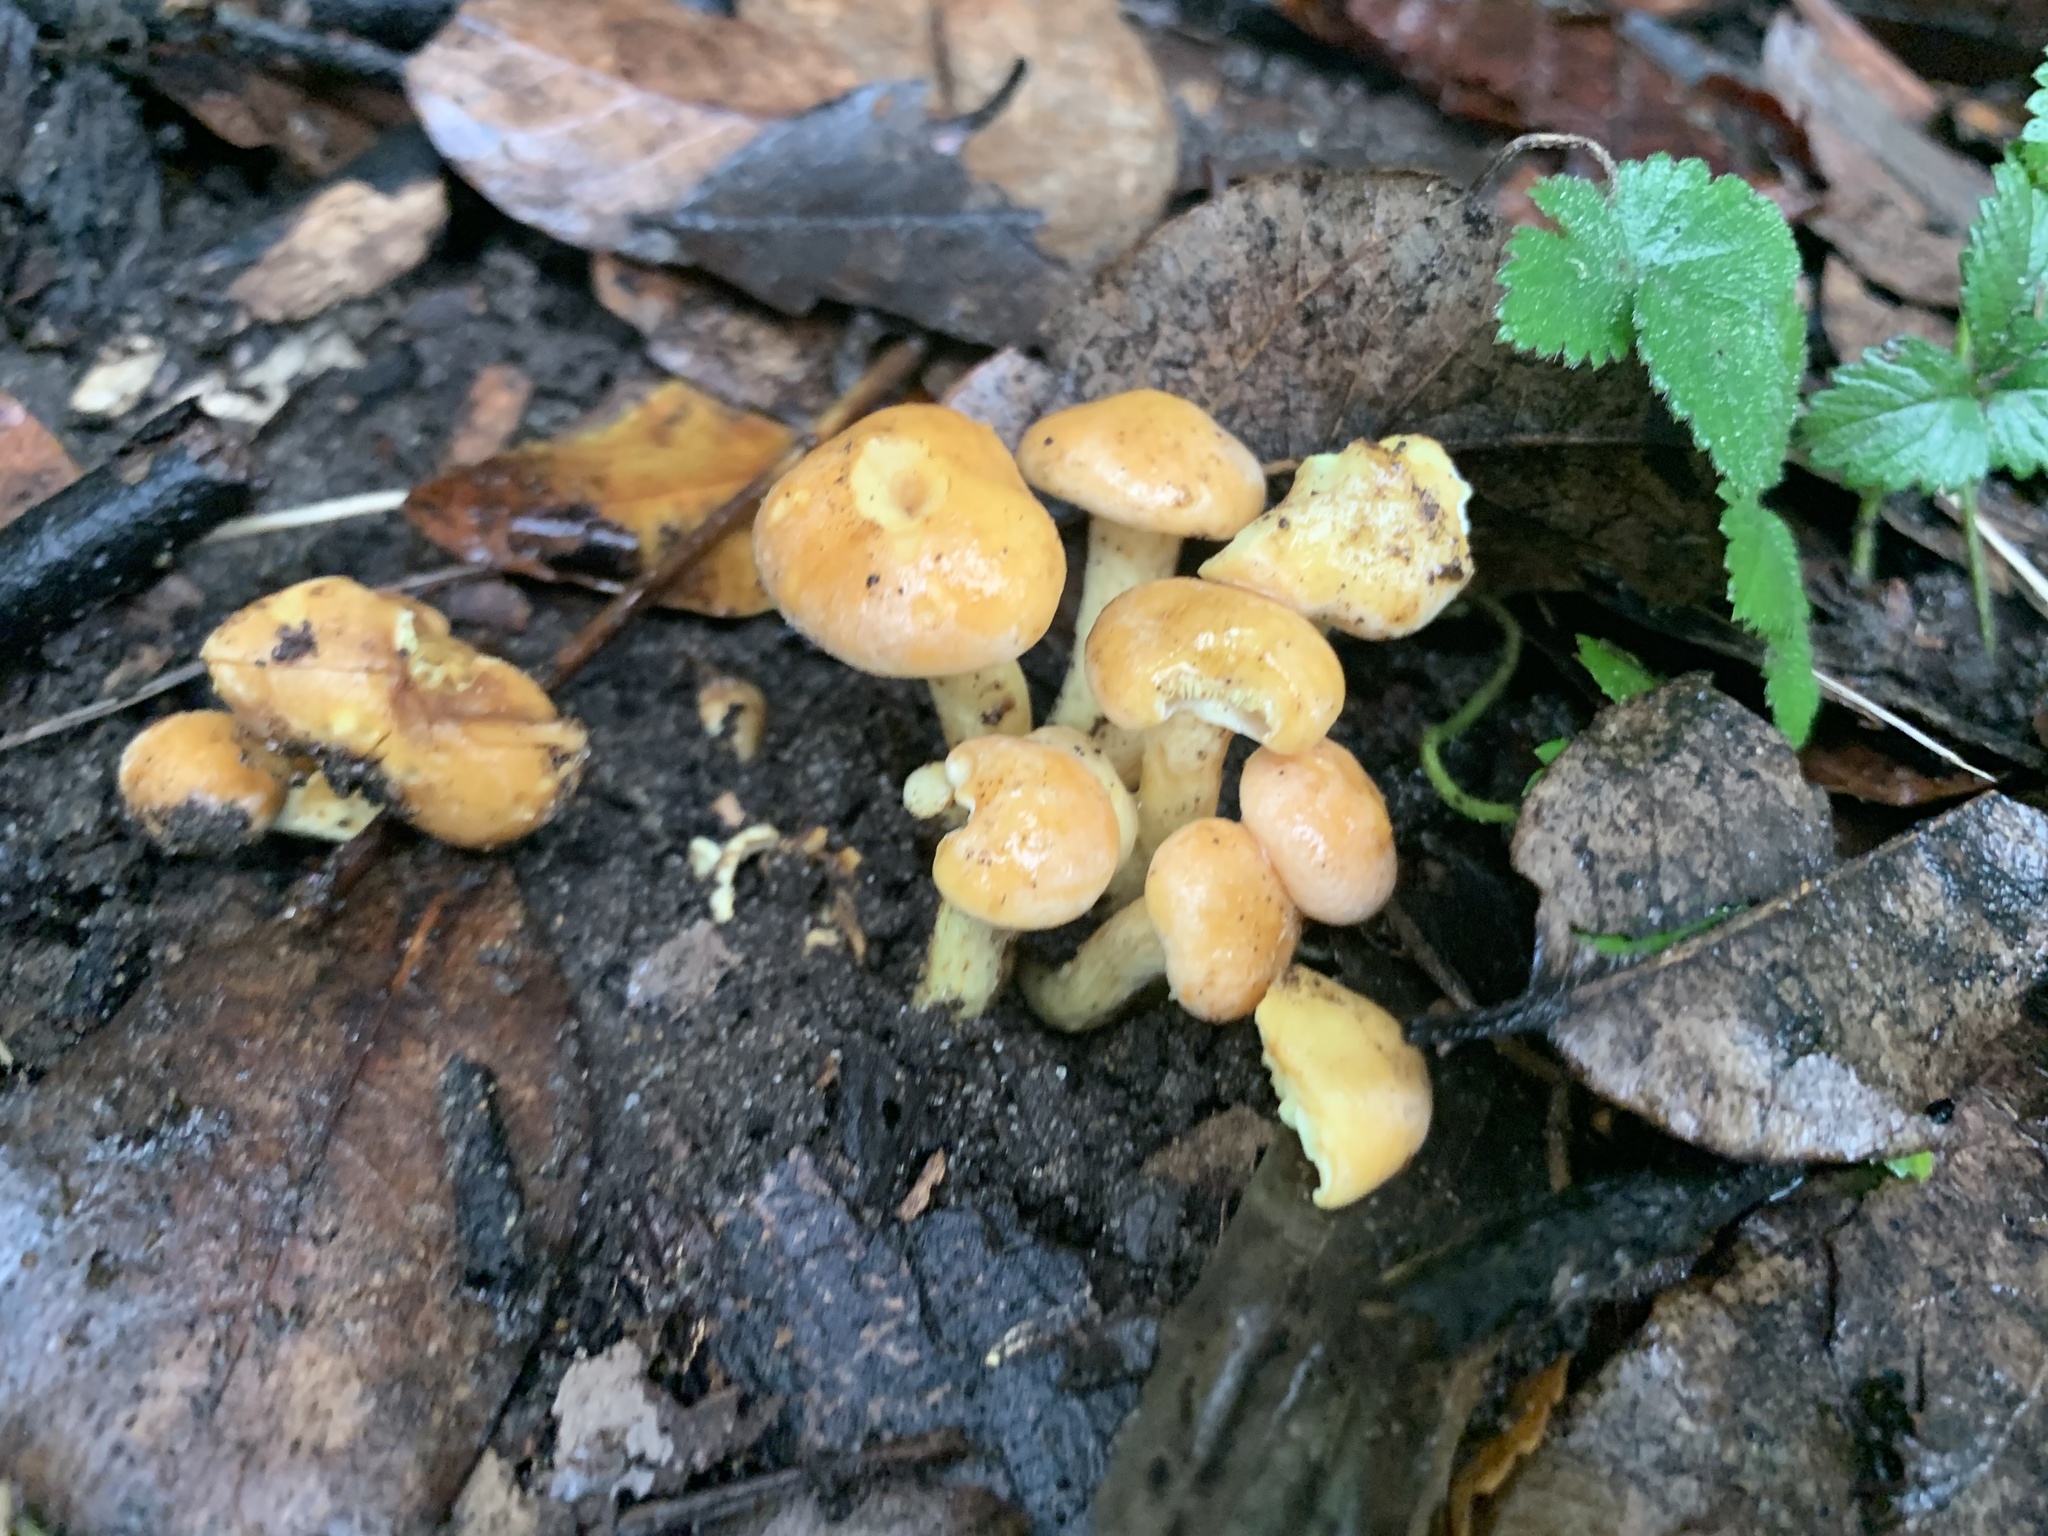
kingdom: Fungi
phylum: Basidiomycota
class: Agaricomycetes
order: Agaricales
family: Strophariaceae
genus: Hypholoma
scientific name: Hypholoma fasciculare
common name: Sulphur tuft
